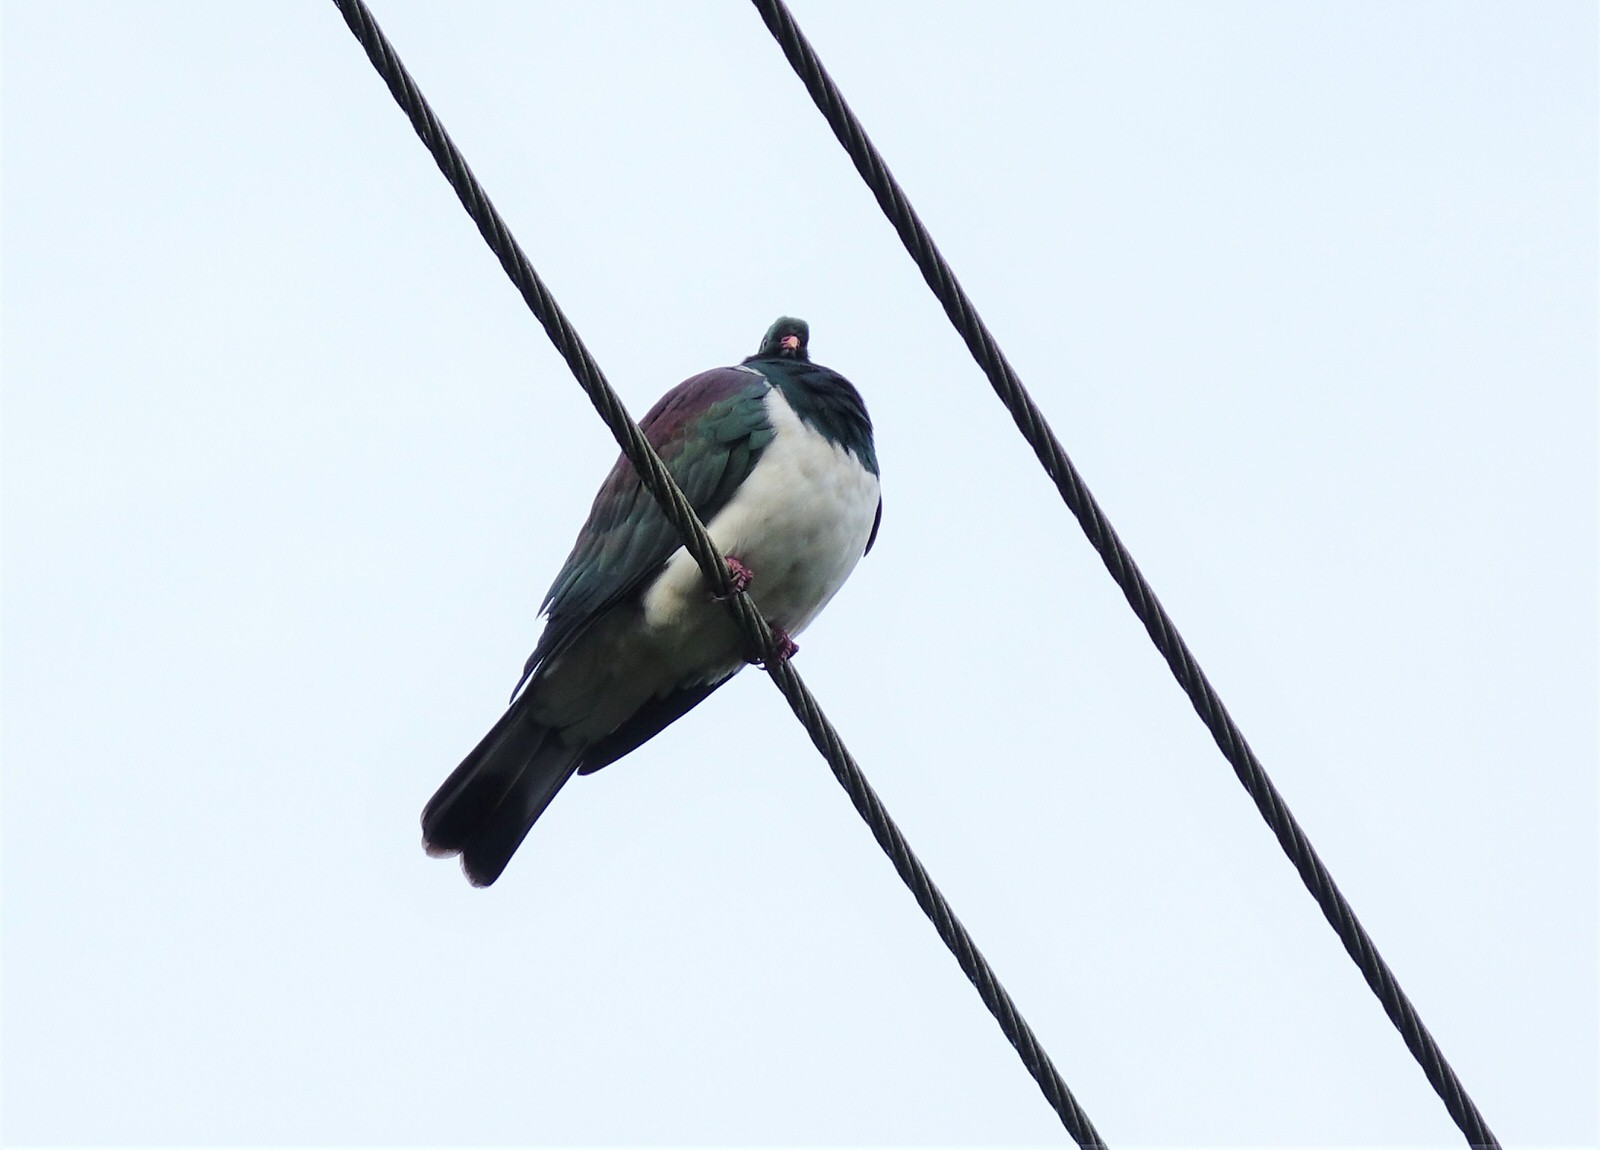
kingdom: Animalia
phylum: Chordata
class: Aves
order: Columbiformes
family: Columbidae
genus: Hemiphaga
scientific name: Hemiphaga novaeseelandiae
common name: New zealand pigeon
